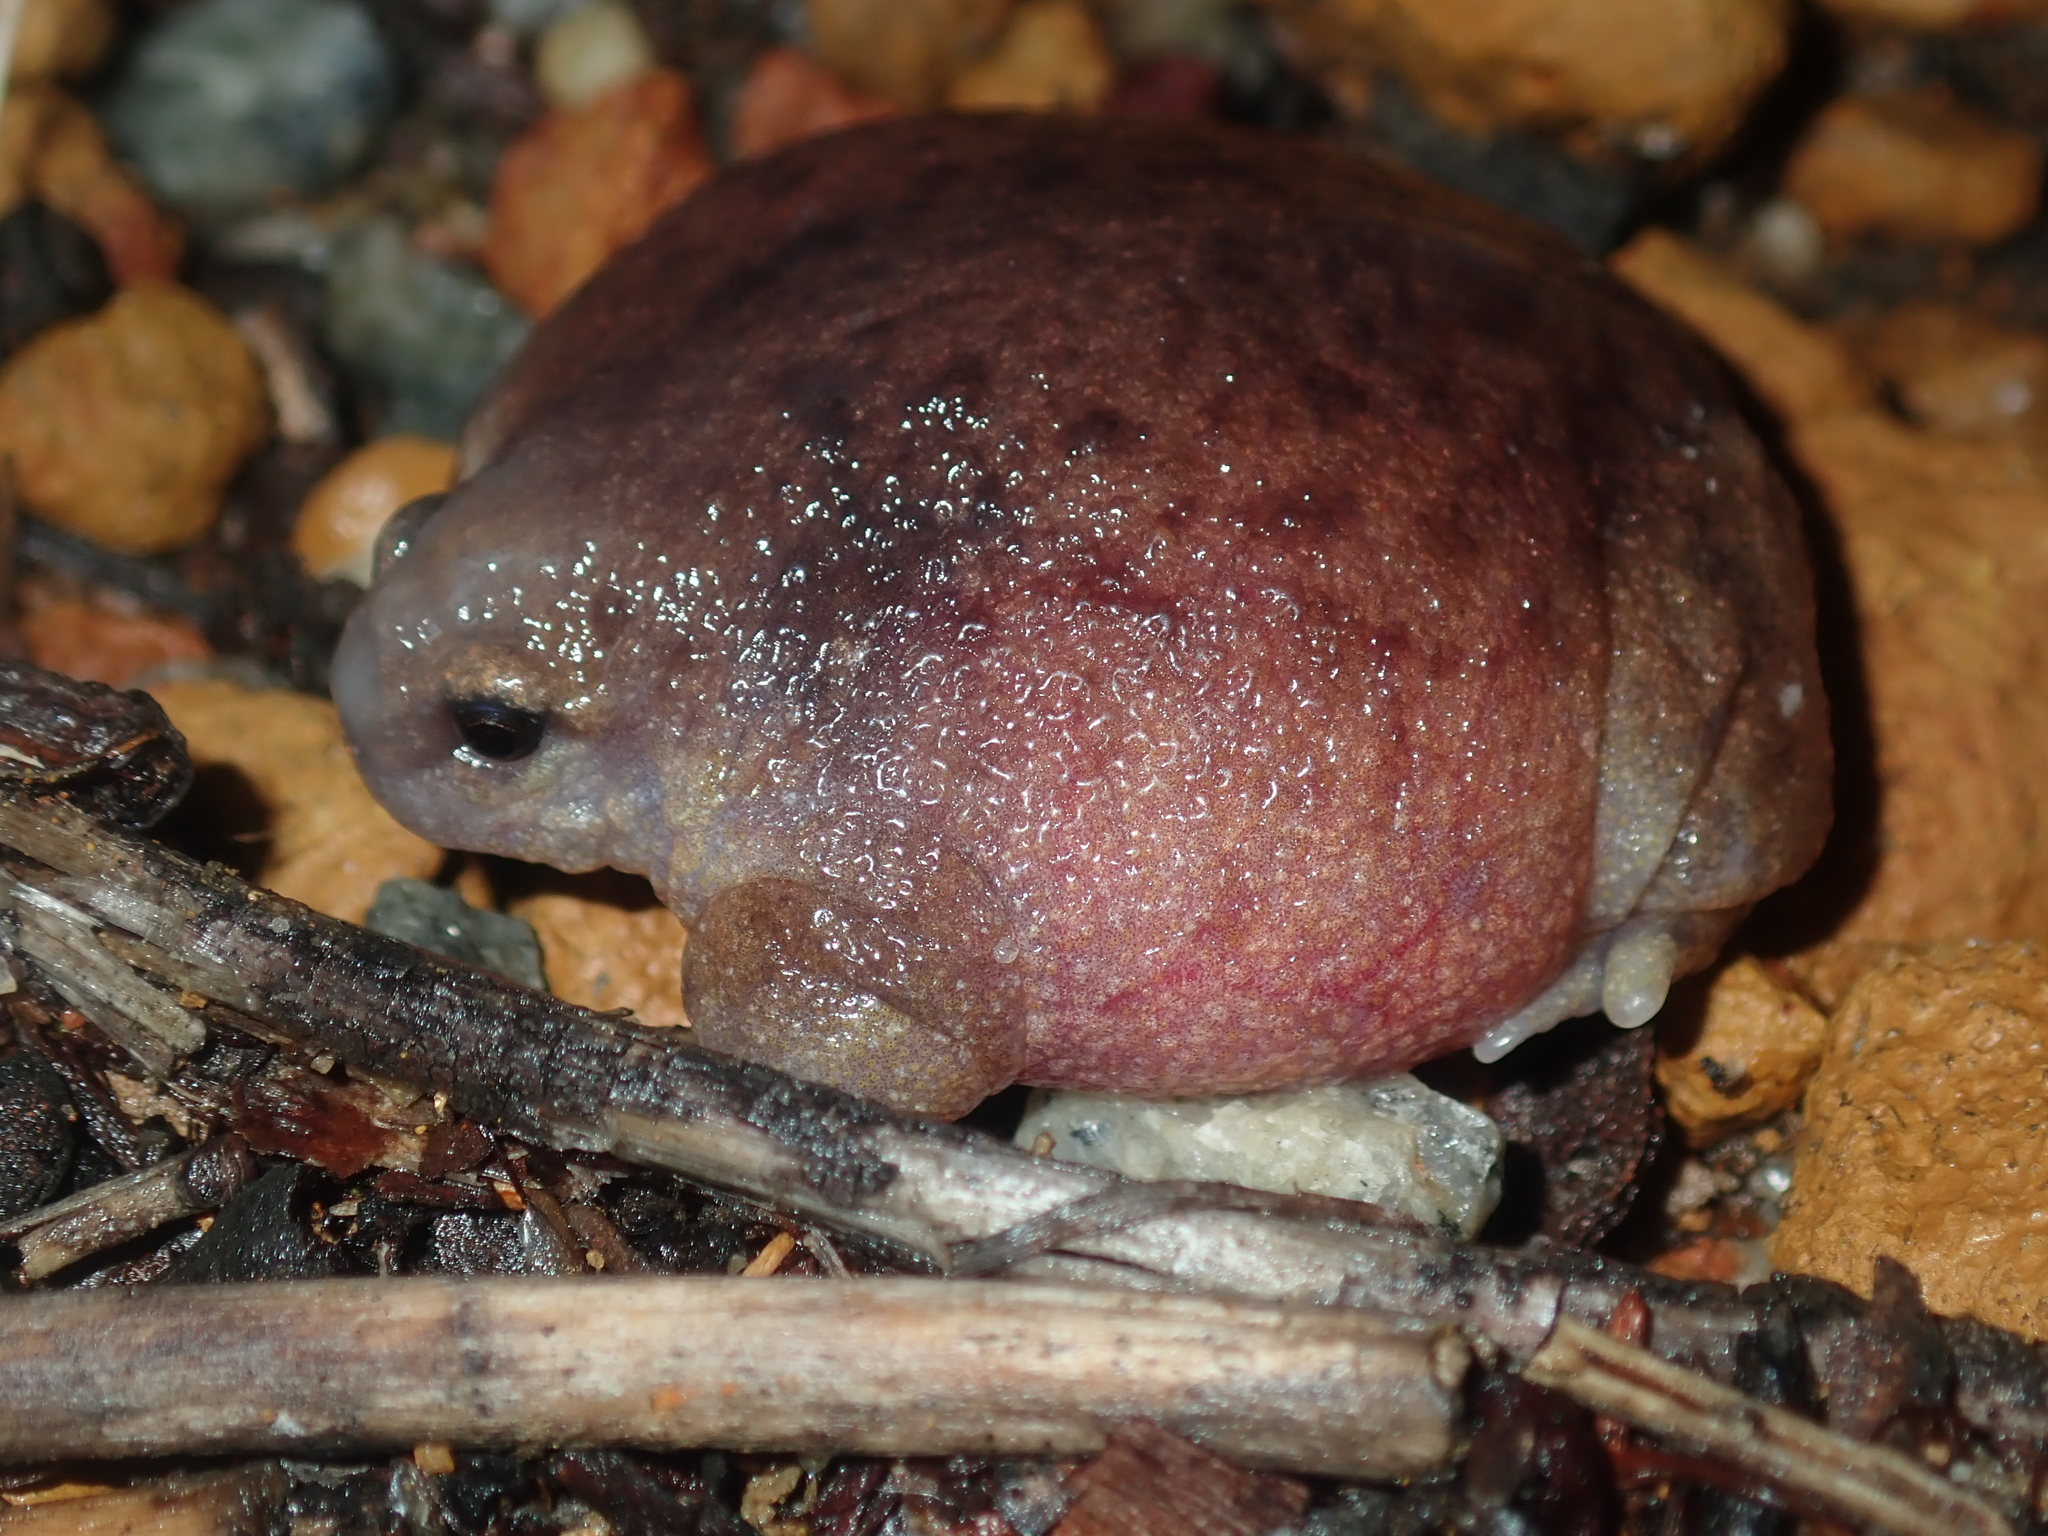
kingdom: Animalia
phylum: Chordata
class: Amphibia
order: Anura
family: Myobatrachidae
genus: Myobatrachus
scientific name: Myobatrachus gouldii
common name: Turtle frog
